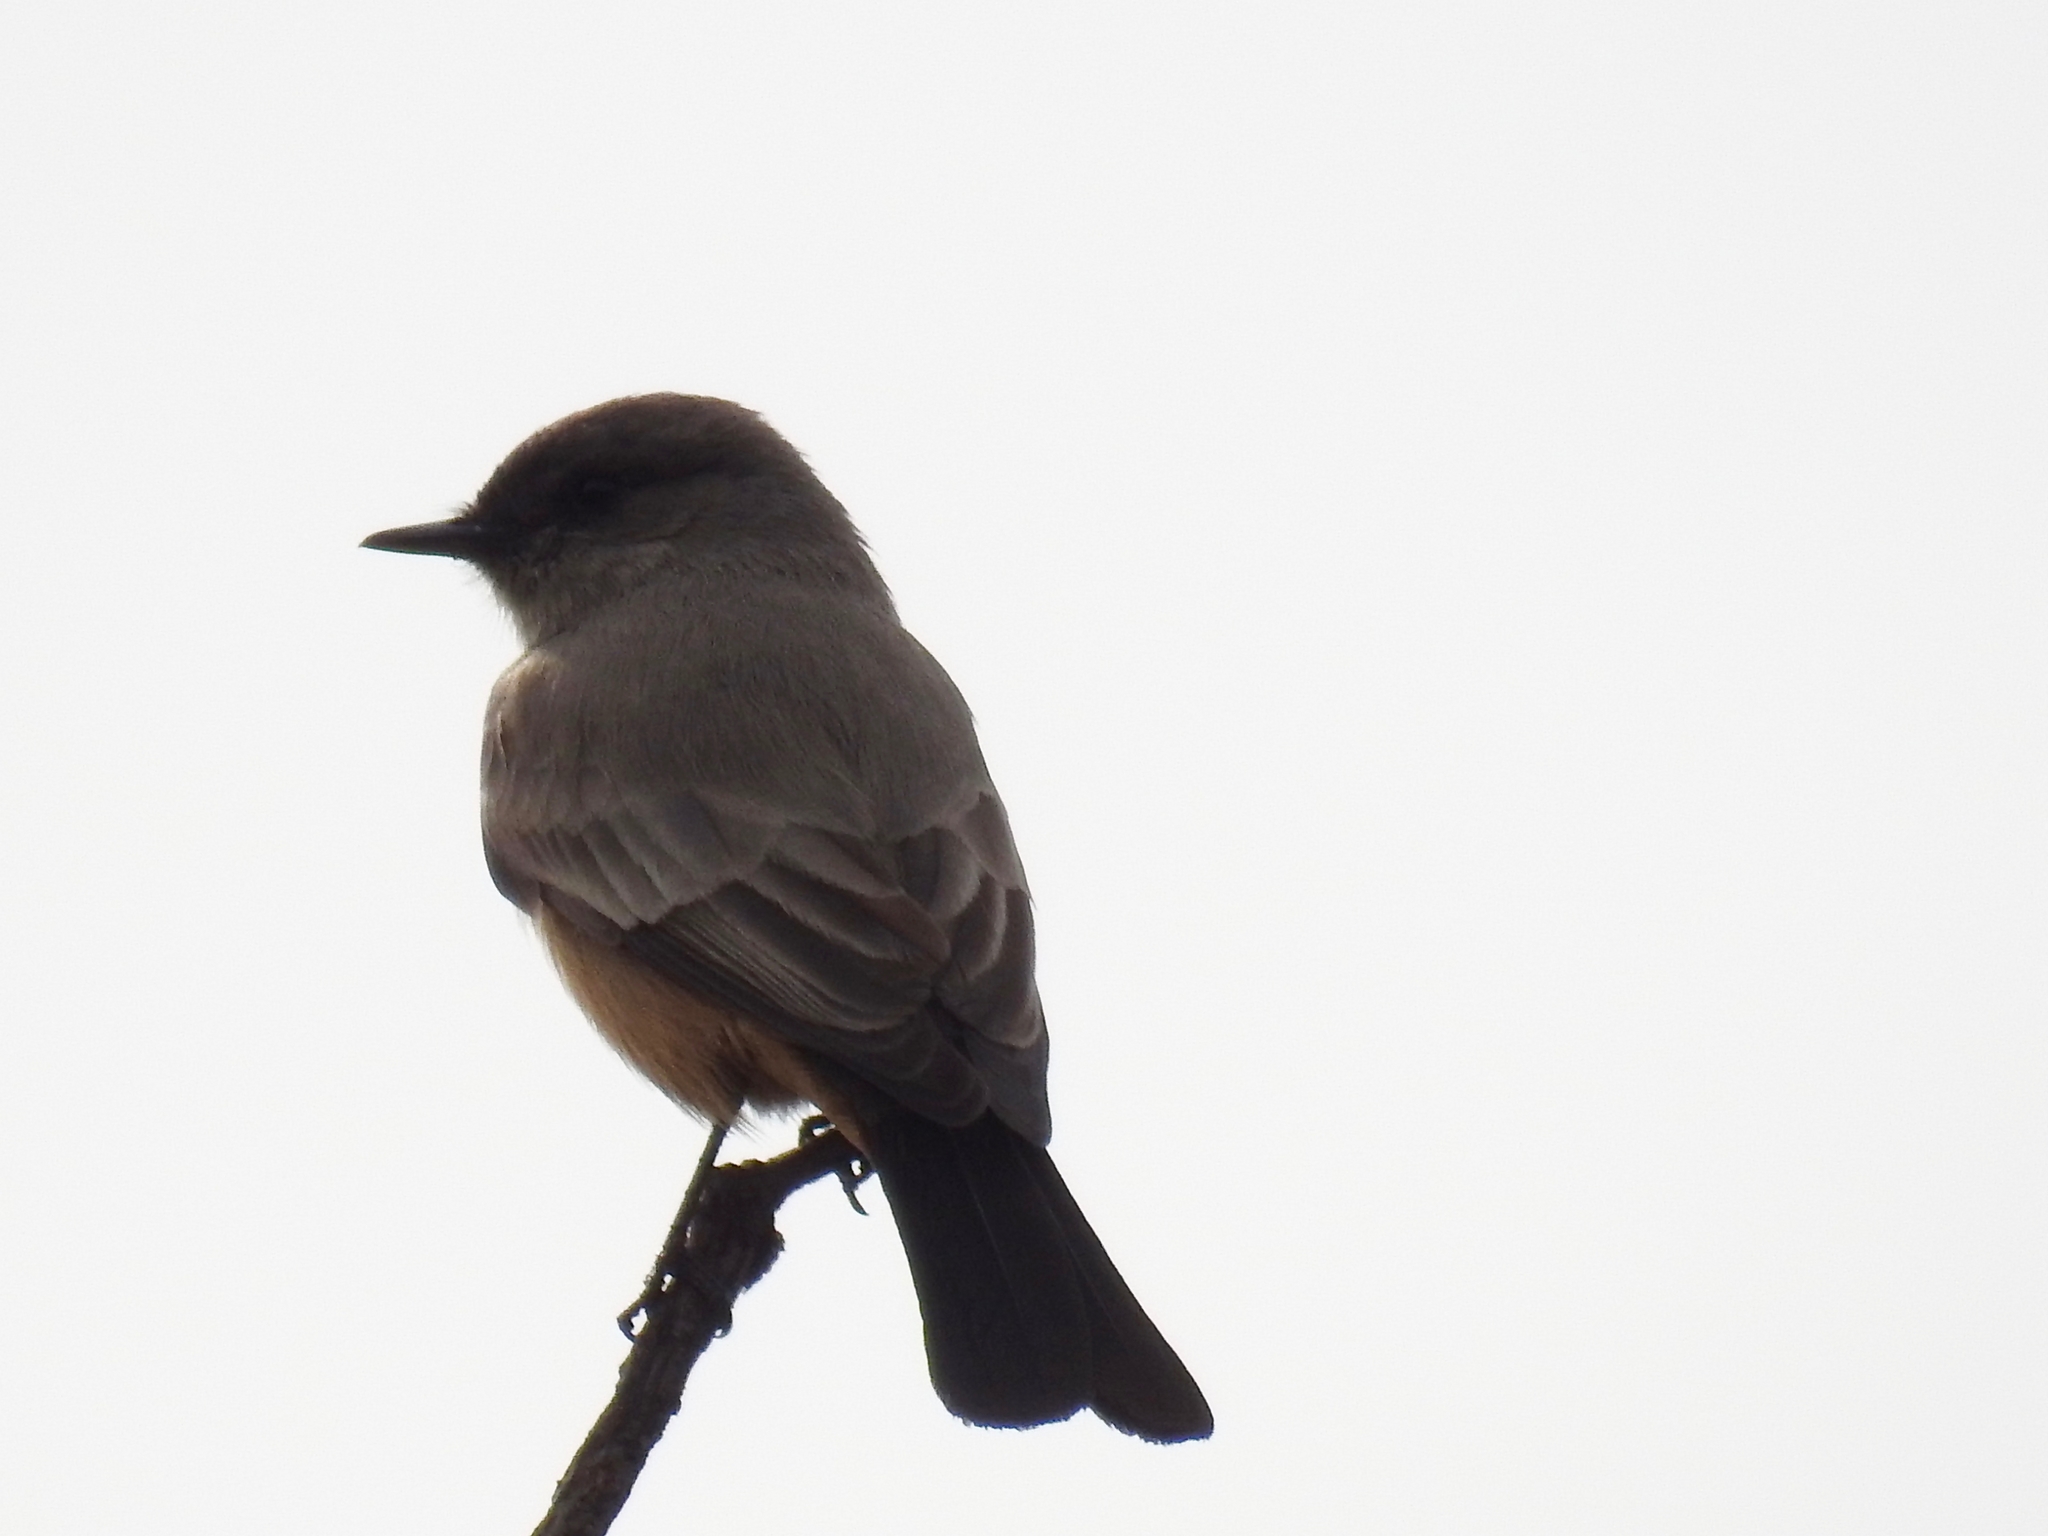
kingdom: Animalia
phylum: Chordata
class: Aves
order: Passeriformes
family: Tyrannidae
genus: Sayornis
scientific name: Sayornis saya
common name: Say's phoebe
